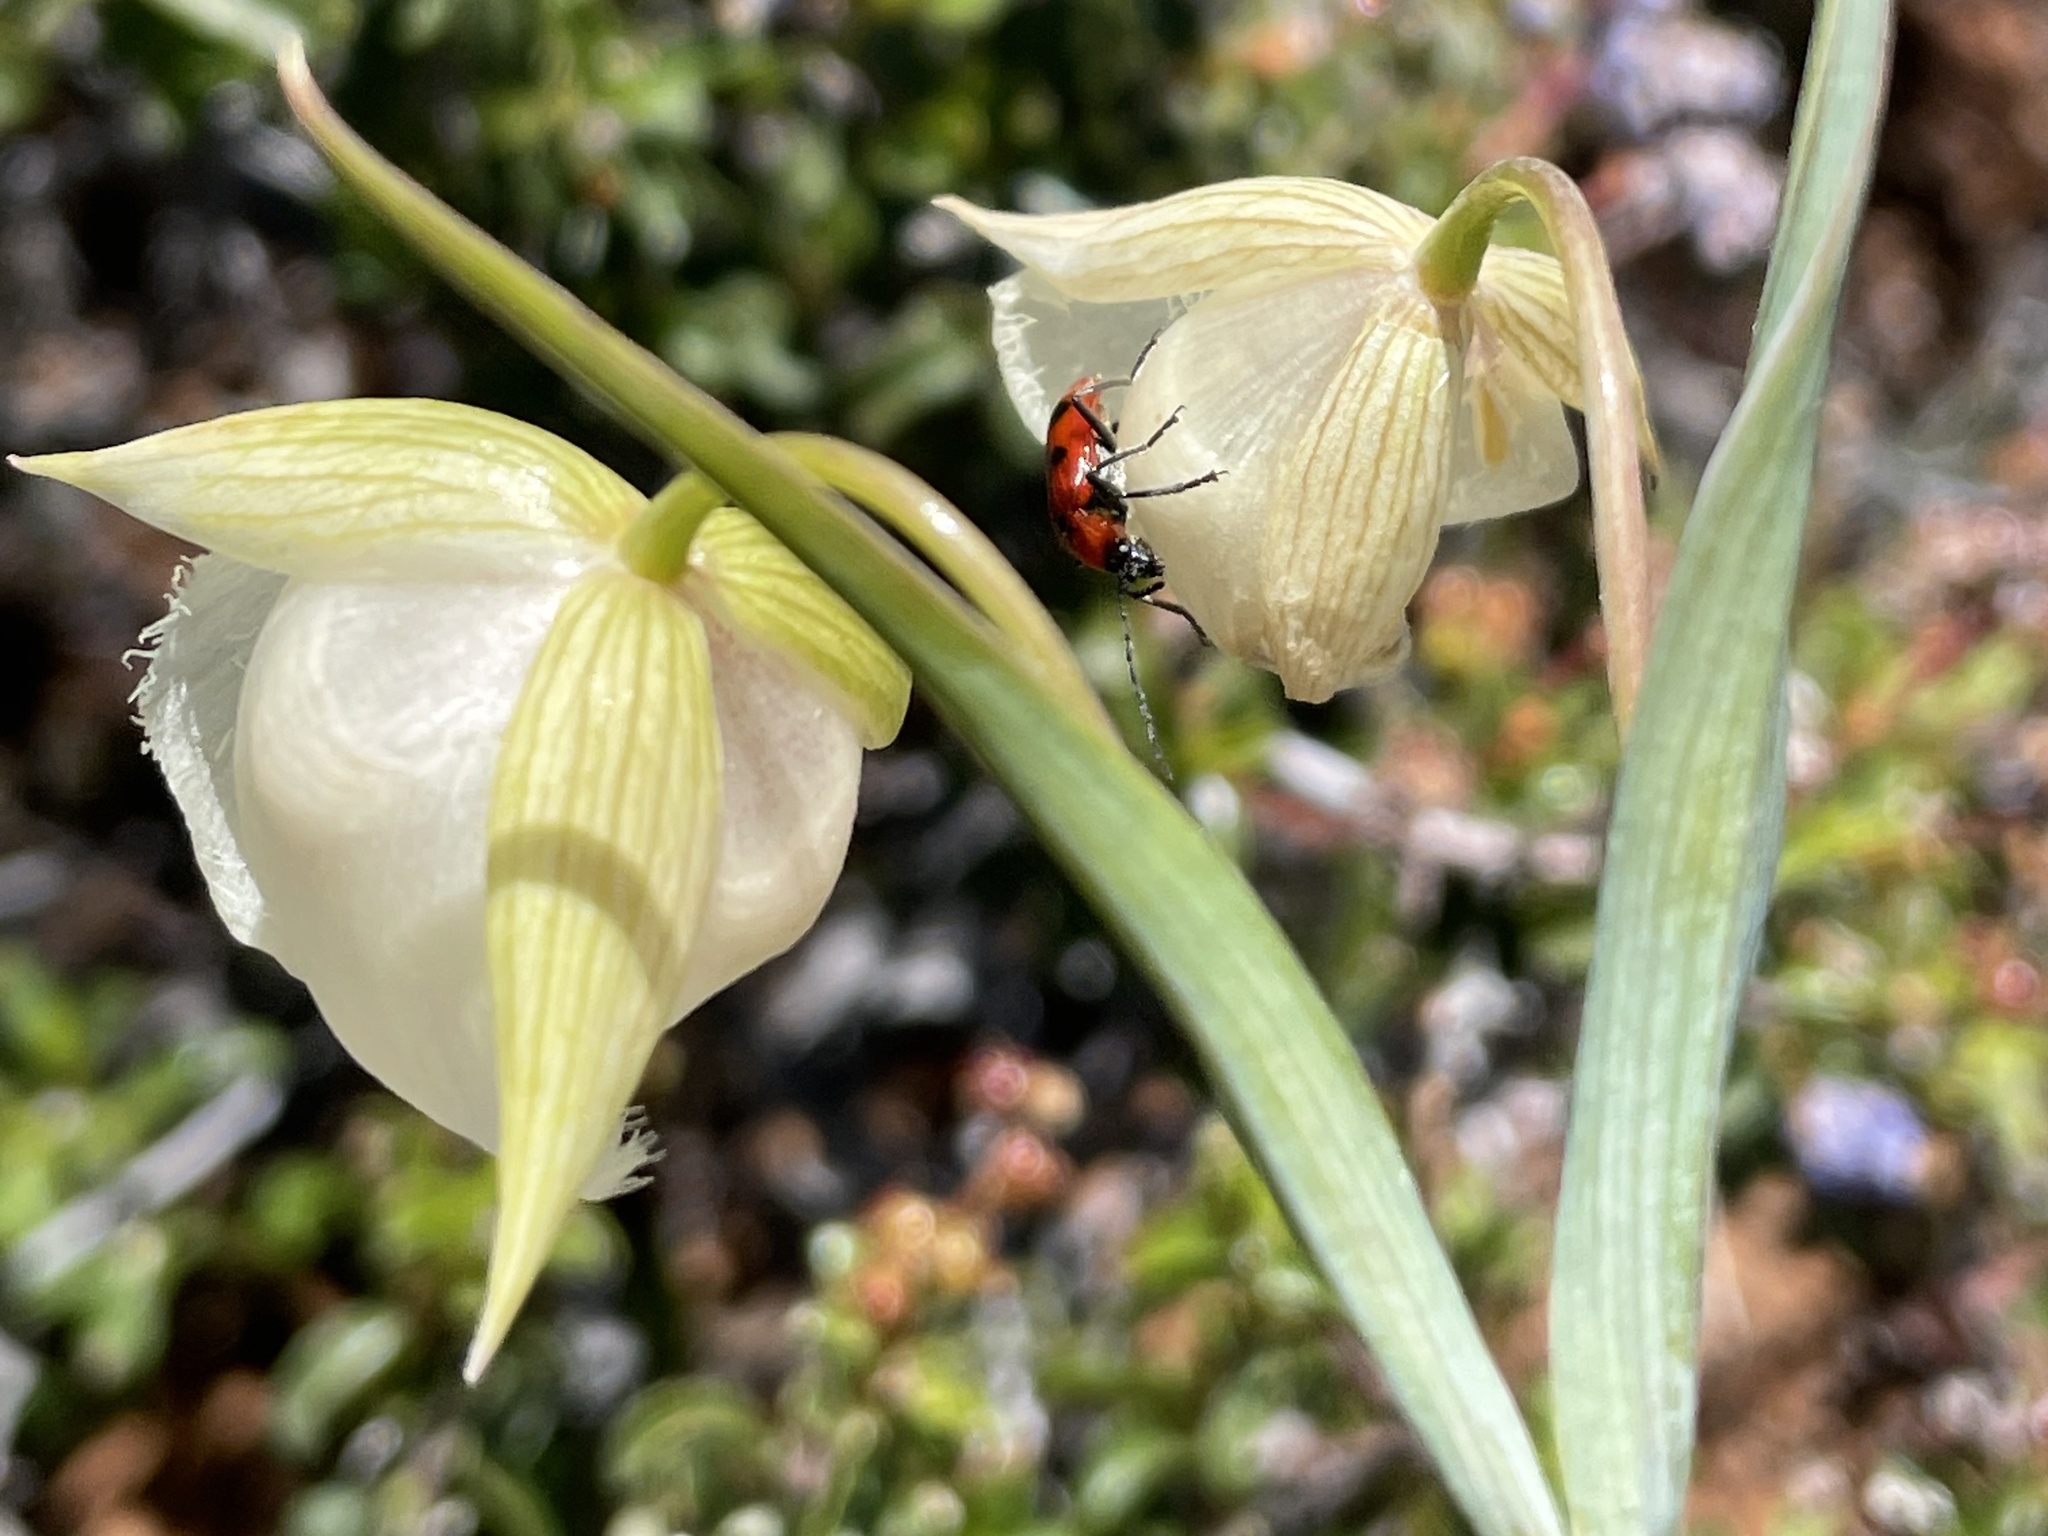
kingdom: Plantae
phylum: Tracheophyta
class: Liliopsida
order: Liliales
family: Liliaceae
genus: Calochortus
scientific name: Calochortus albus
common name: Fairy-lantern
